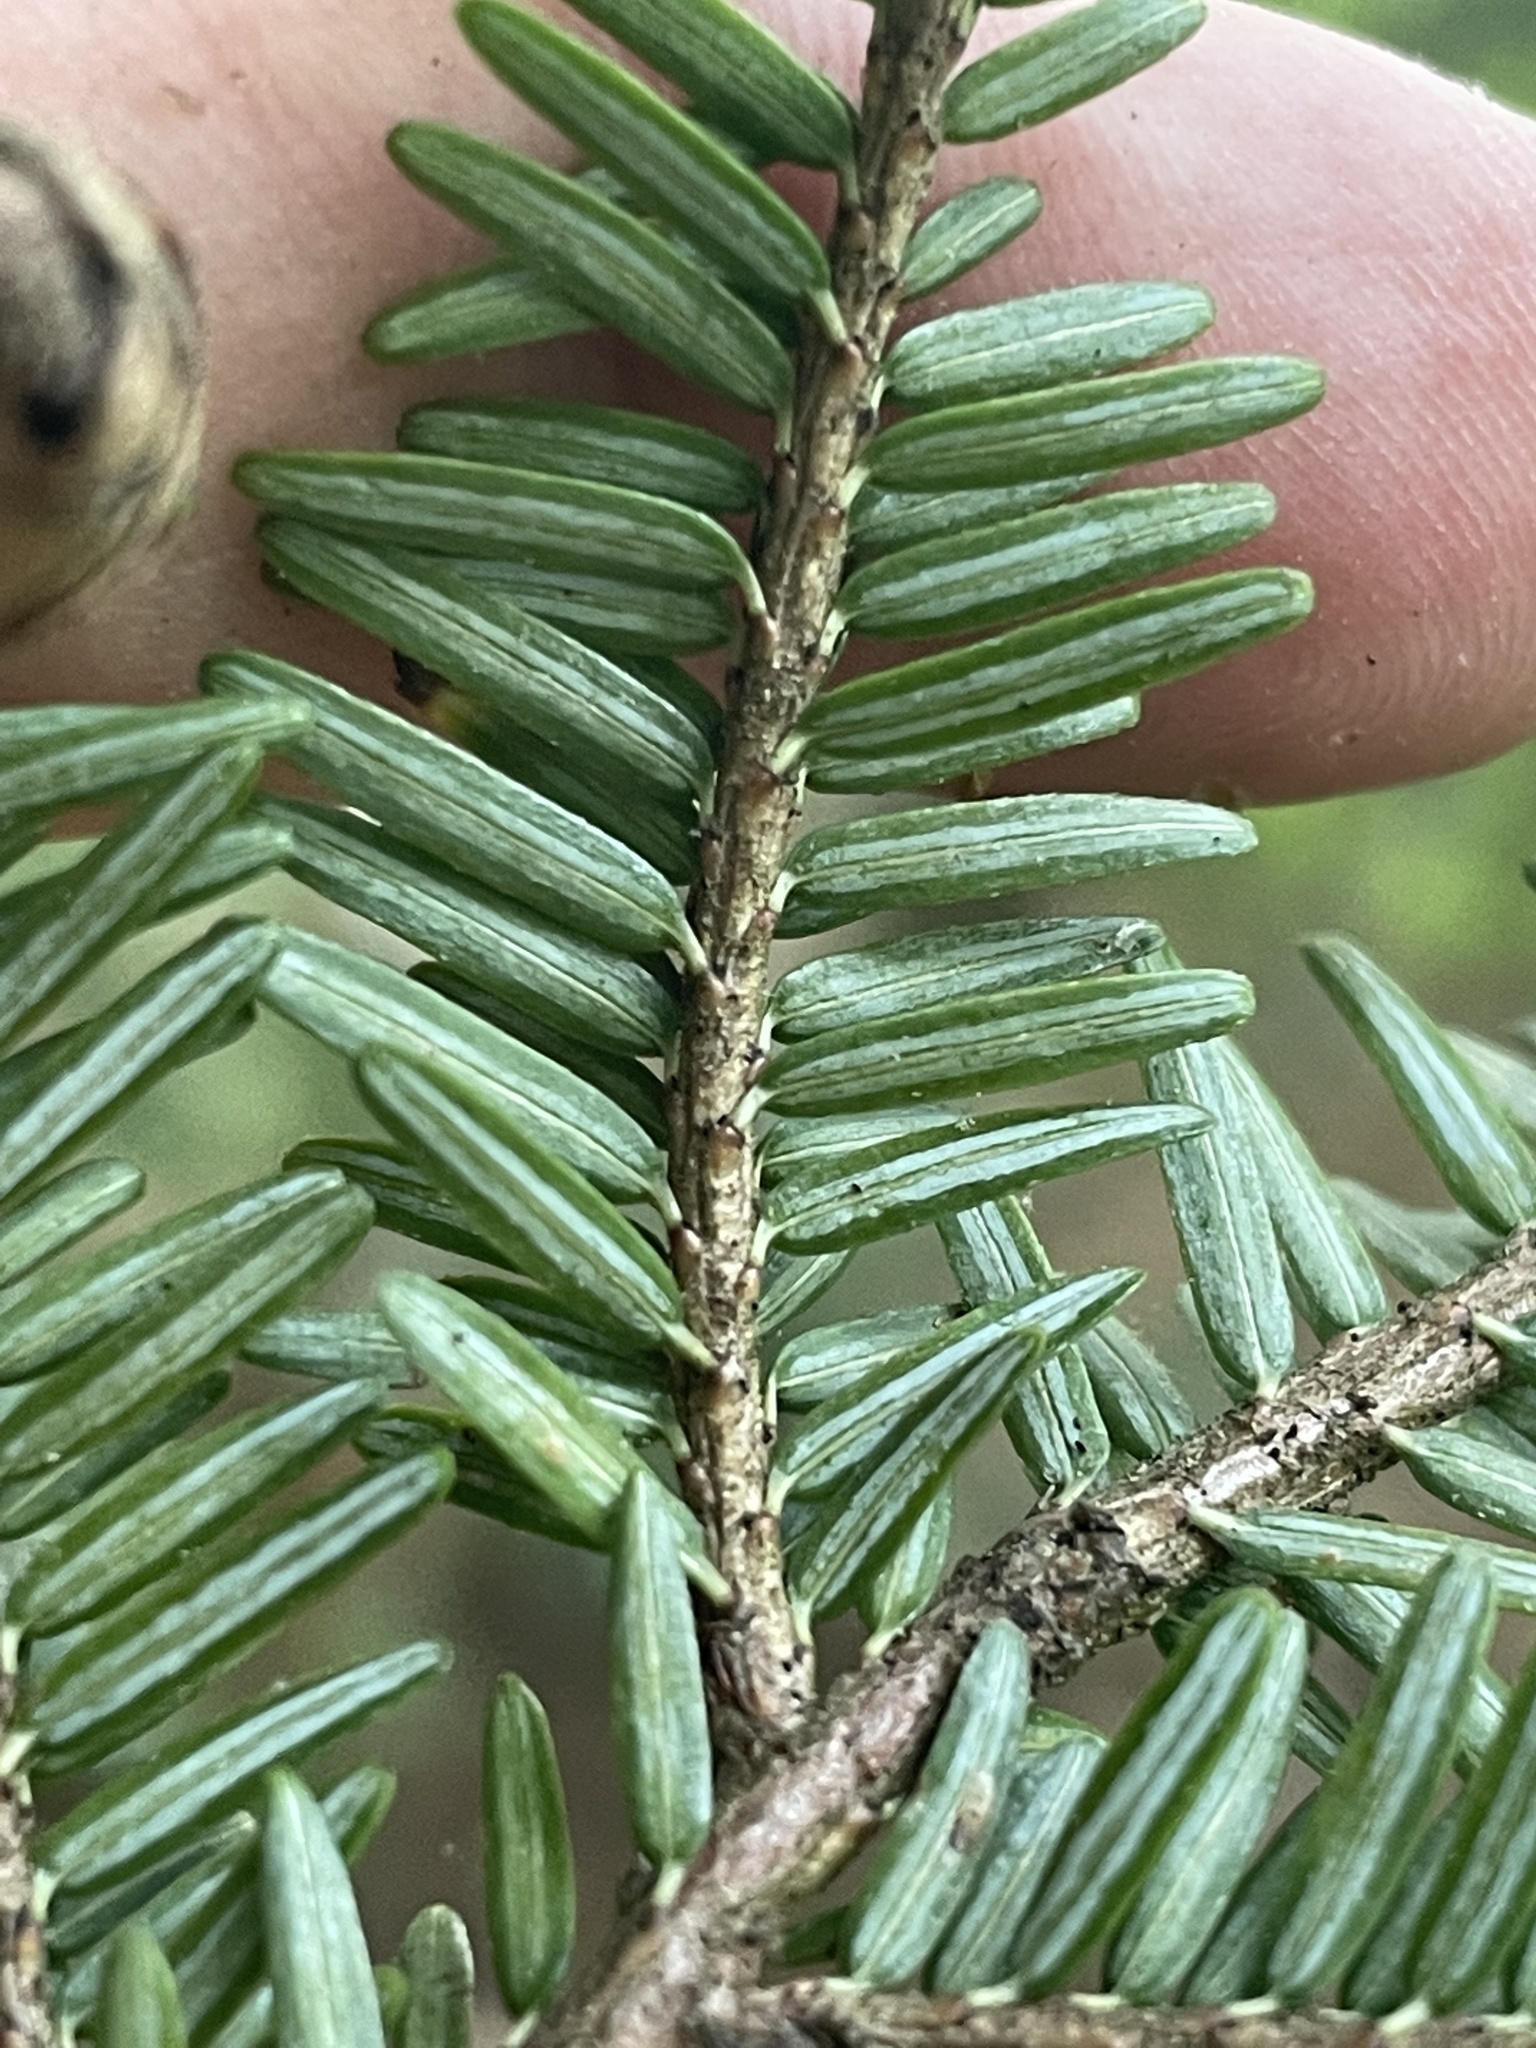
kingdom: Plantae
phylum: Tracheophyta
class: Pinopsida
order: Pinales
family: Pinaceae
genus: Tsuga
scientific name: Tsuga canadensis
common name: Eastern hemlock
